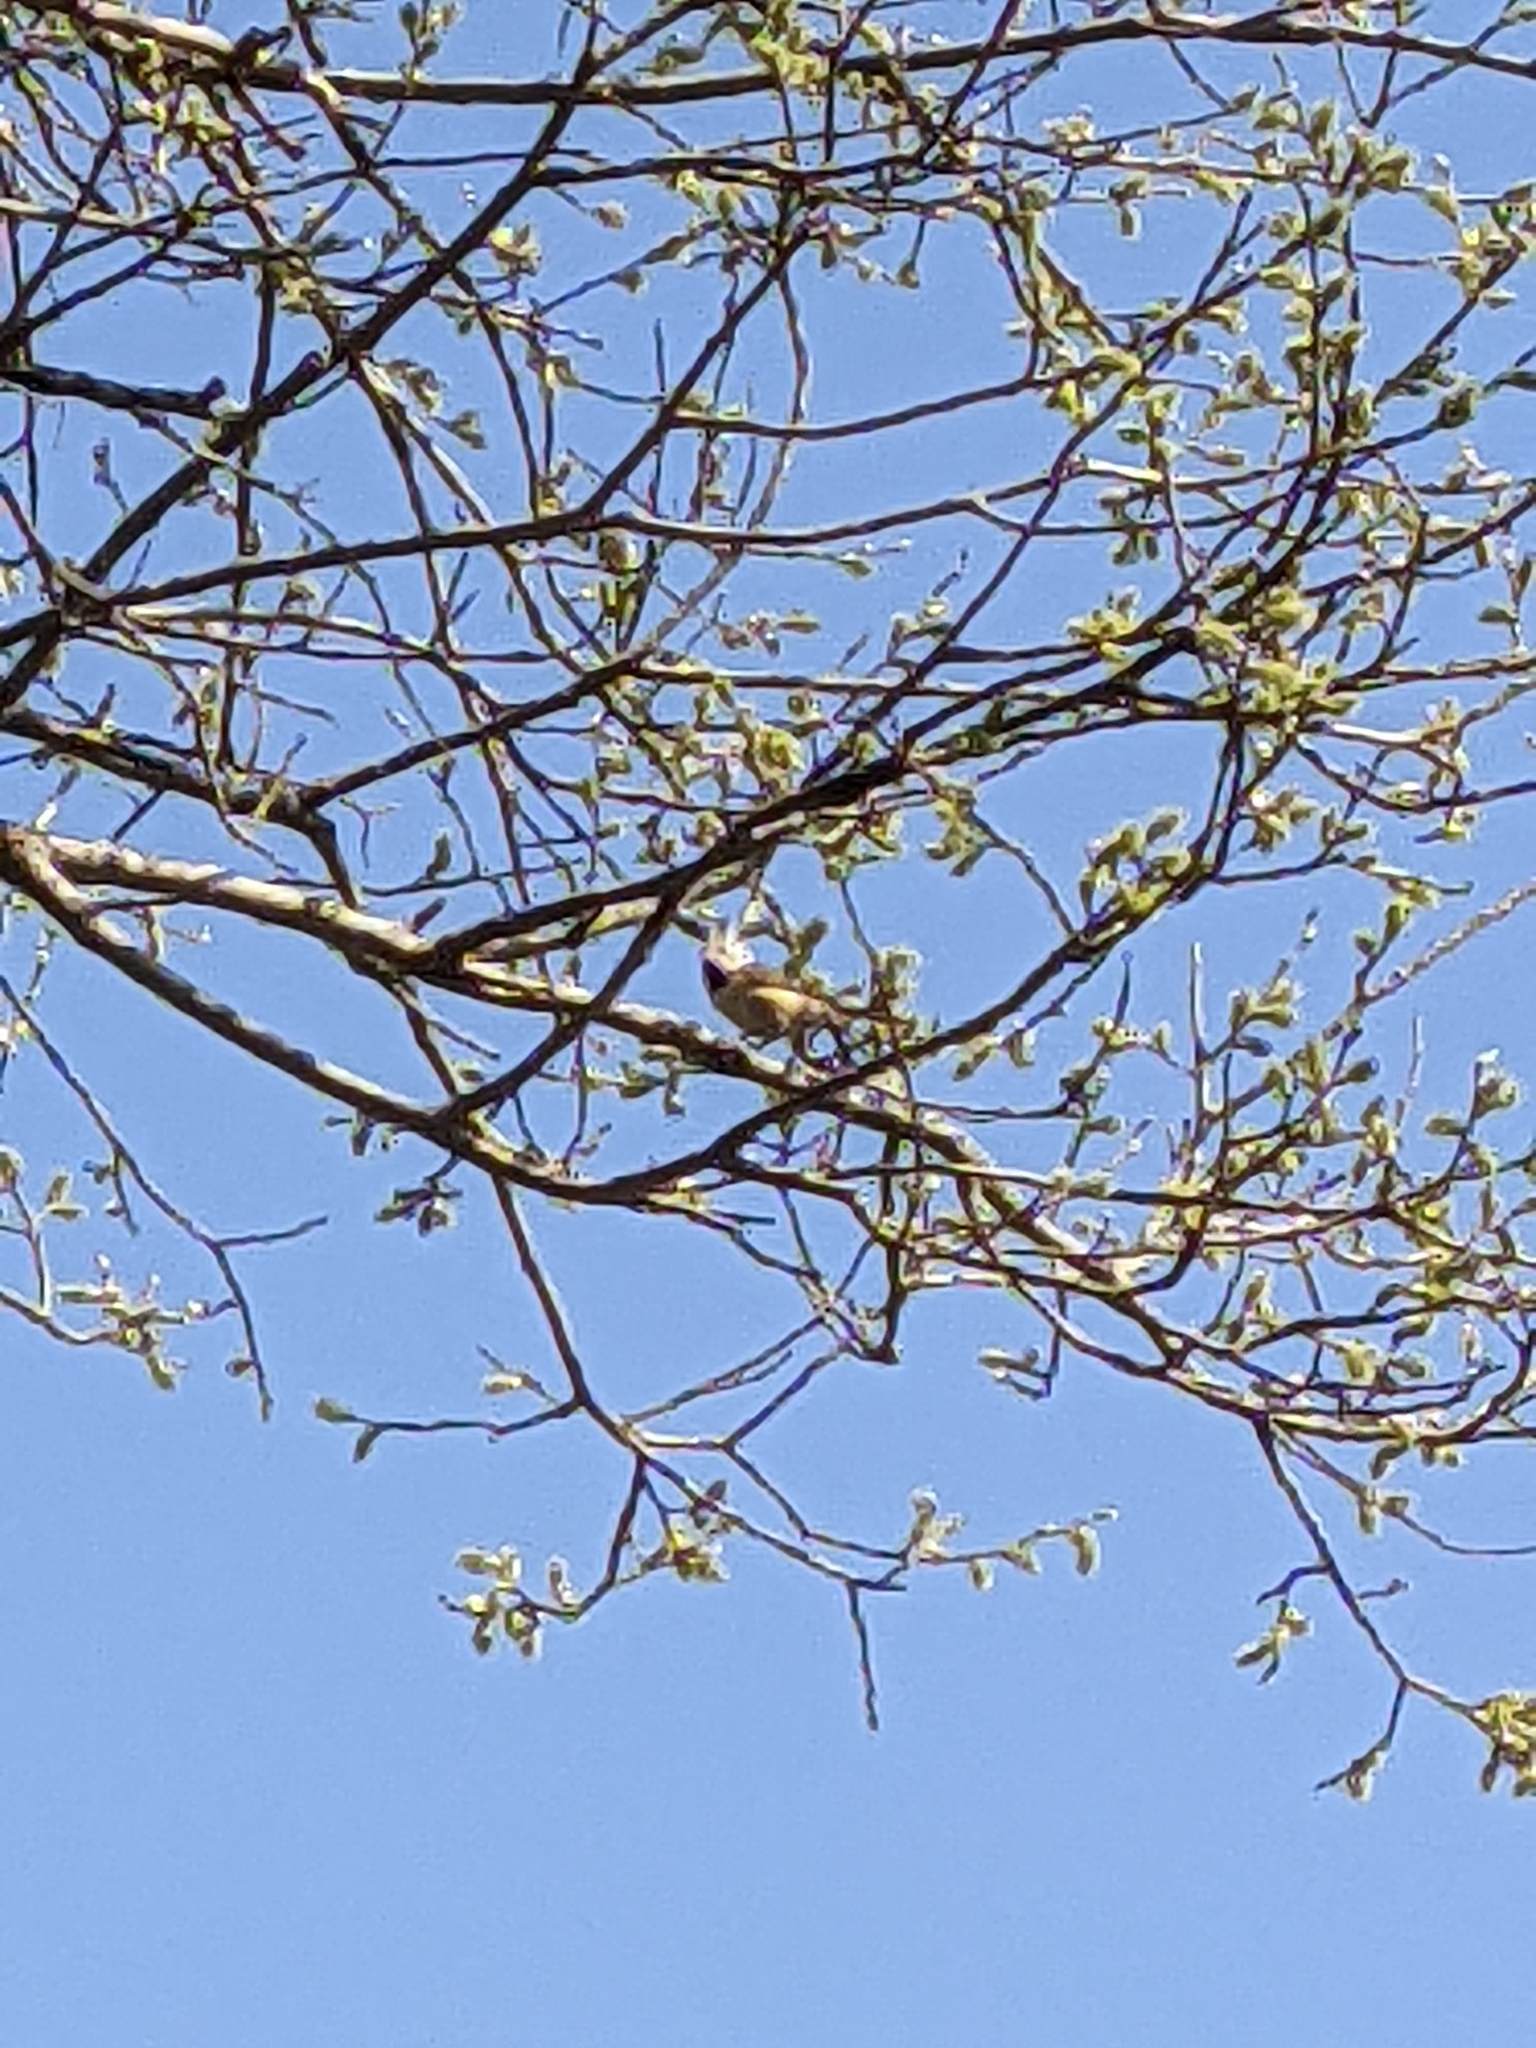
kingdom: Animalia
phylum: Chordata
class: Aves
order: Passeriformes
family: Paridae
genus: Lophophanes
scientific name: Lophophanes cristatus
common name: European crested tit
